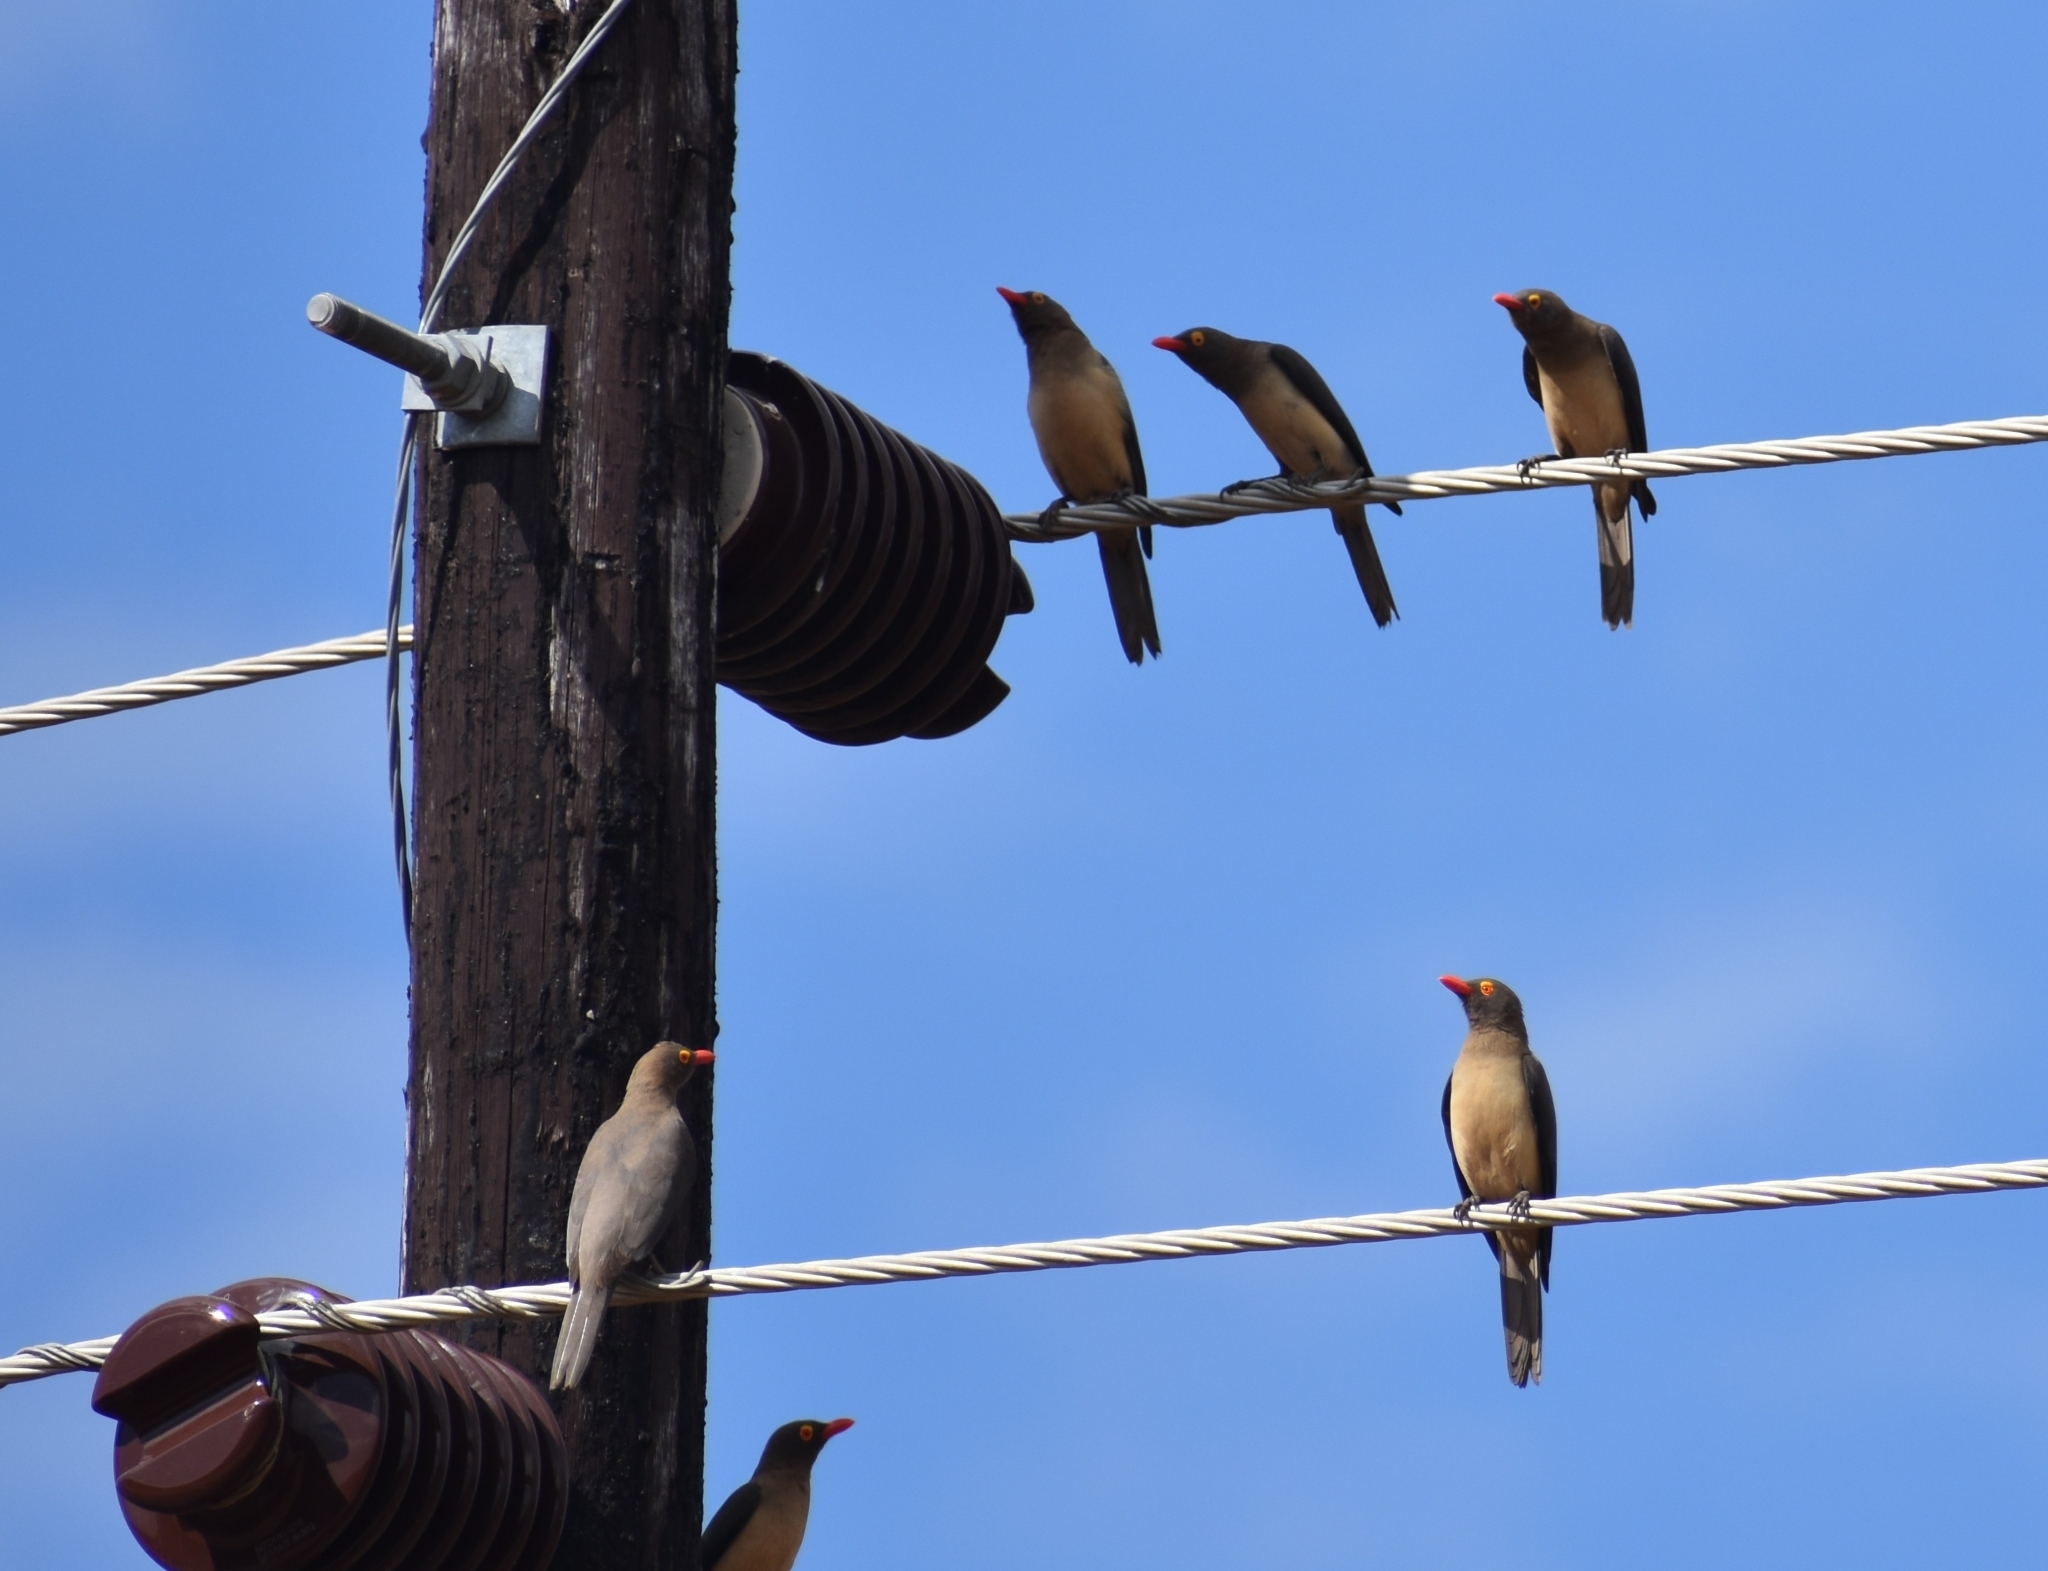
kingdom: Animalia
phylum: Chordata
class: Aves
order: Passeriformes
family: Buphagidae
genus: Buphagus
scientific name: Buphagus erythrorhynchus
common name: Red-billed oxpecker
